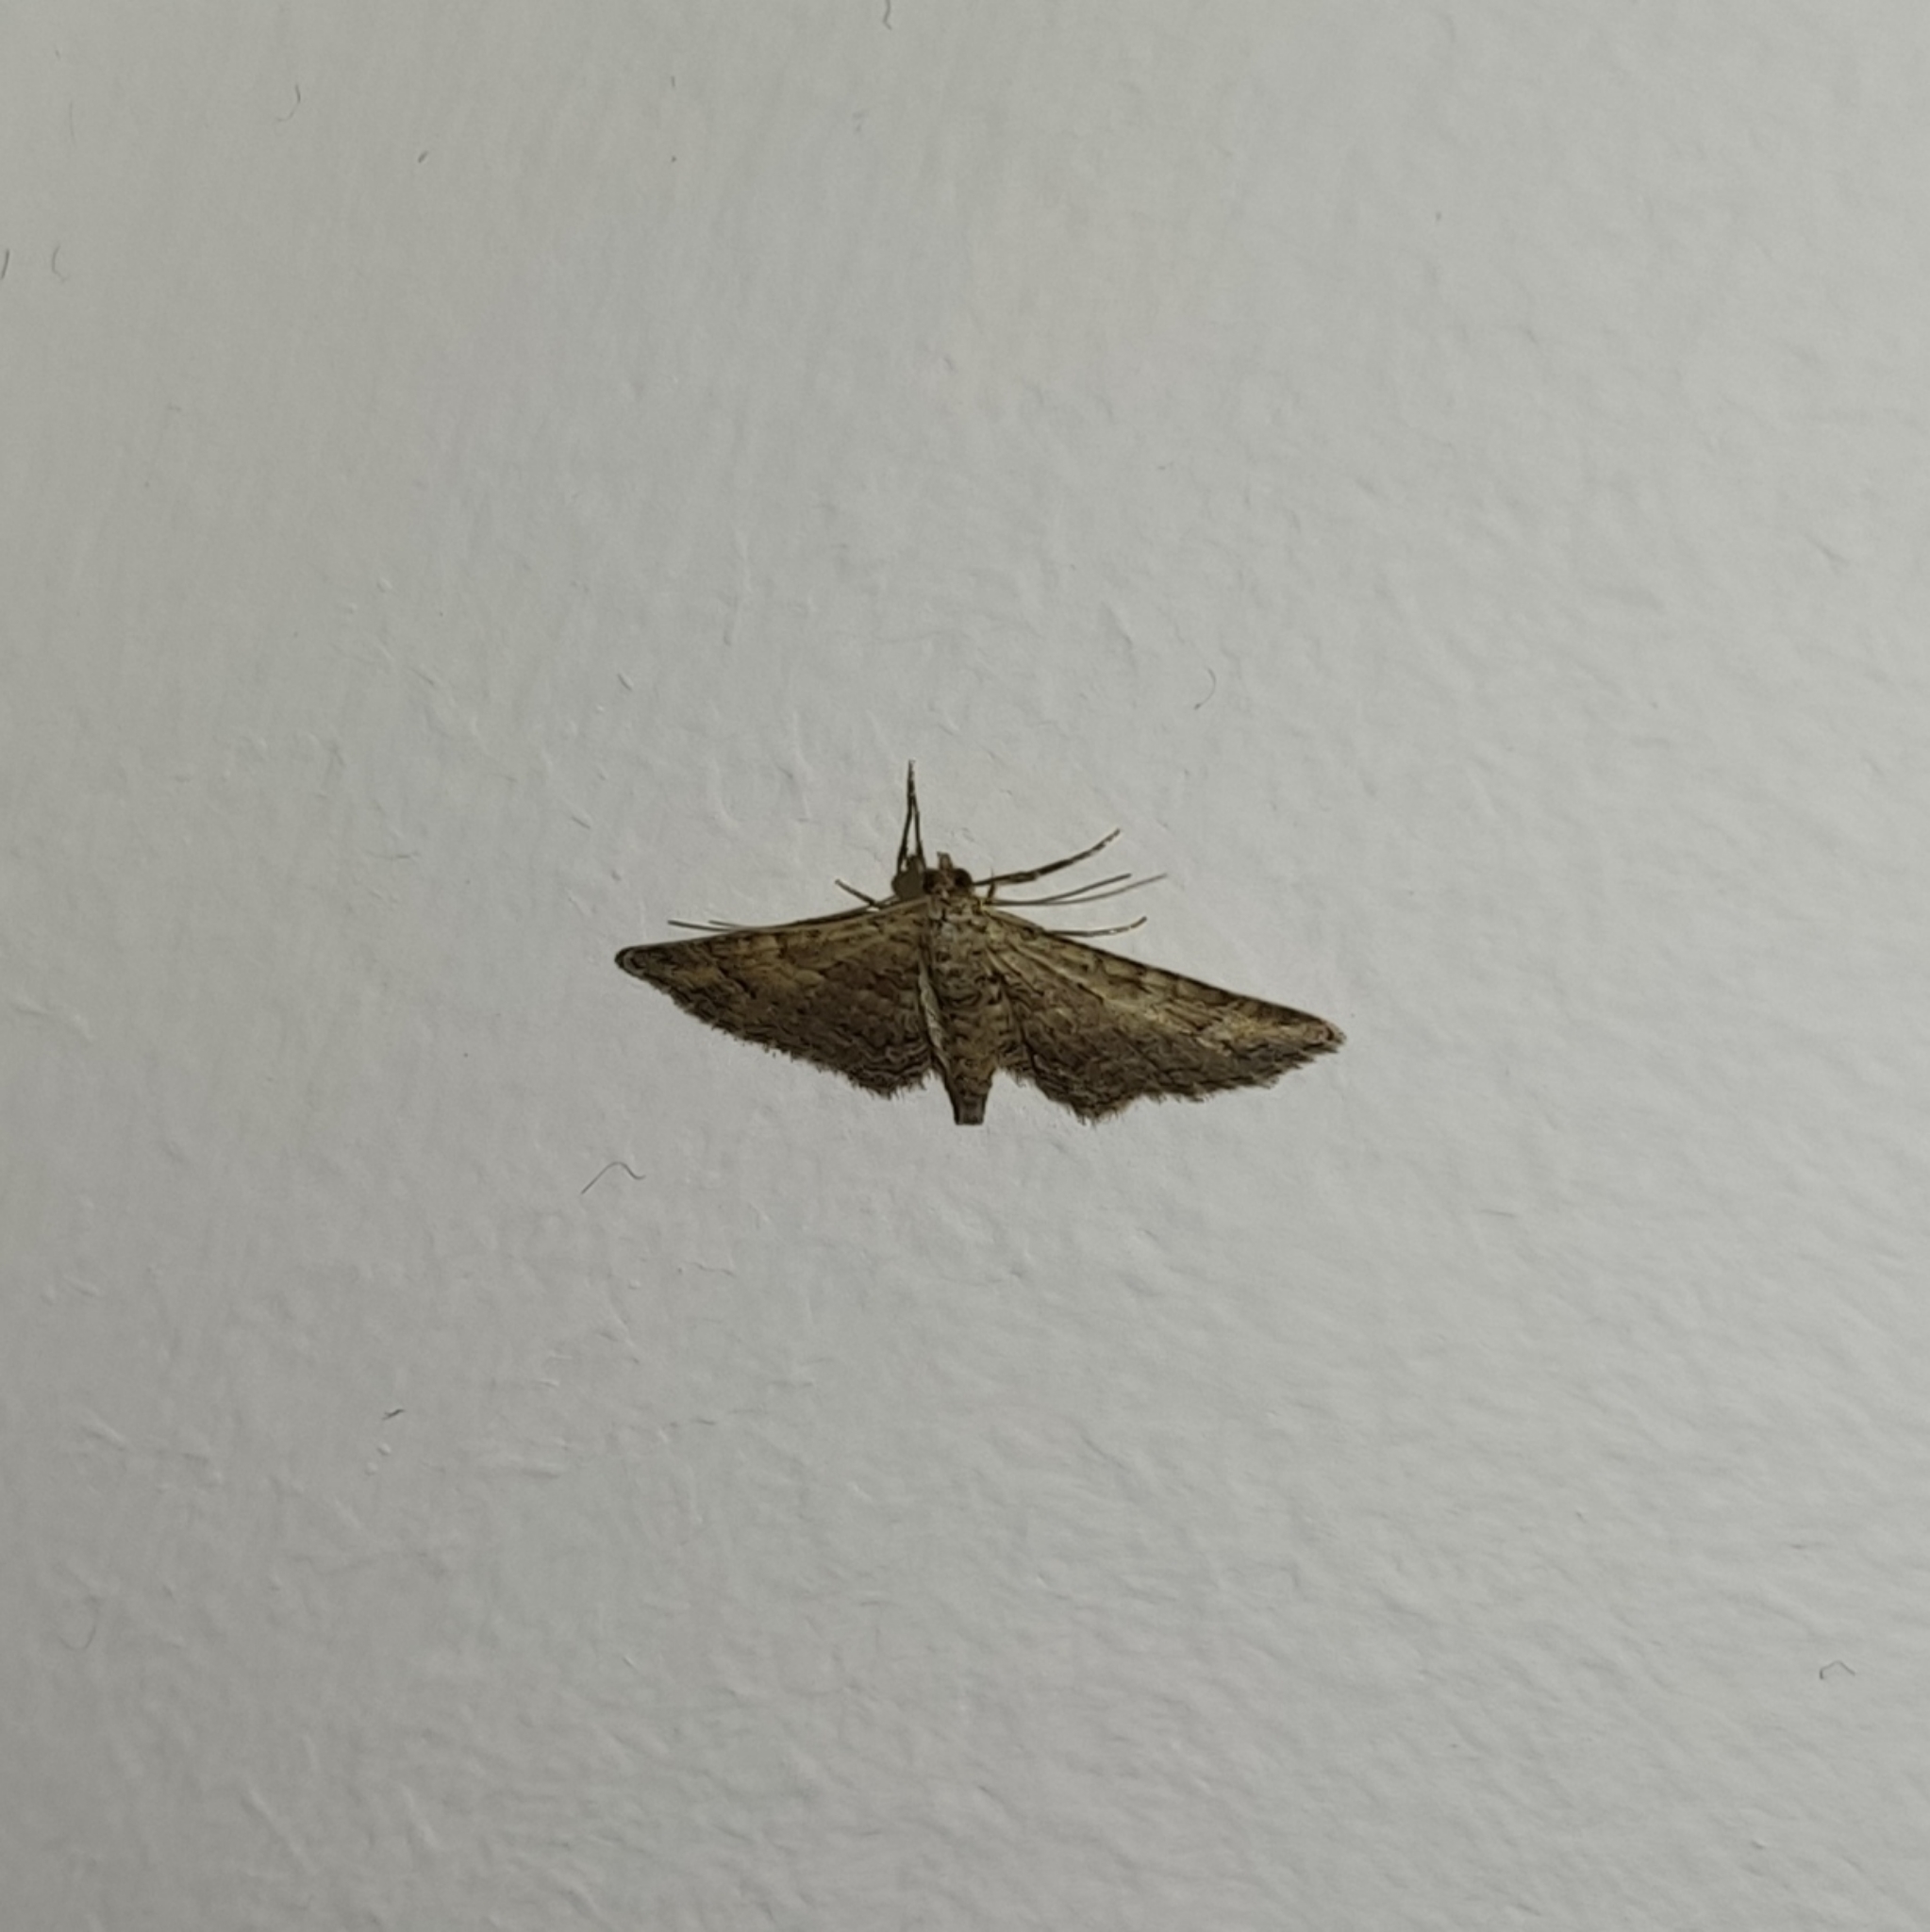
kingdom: Animalia
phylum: Arthropoda
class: Insecta
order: Lepidoptera
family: Geometridae
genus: Gymnoscelis
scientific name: Gymnoscelis rufifasciata
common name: Double-striped pug
